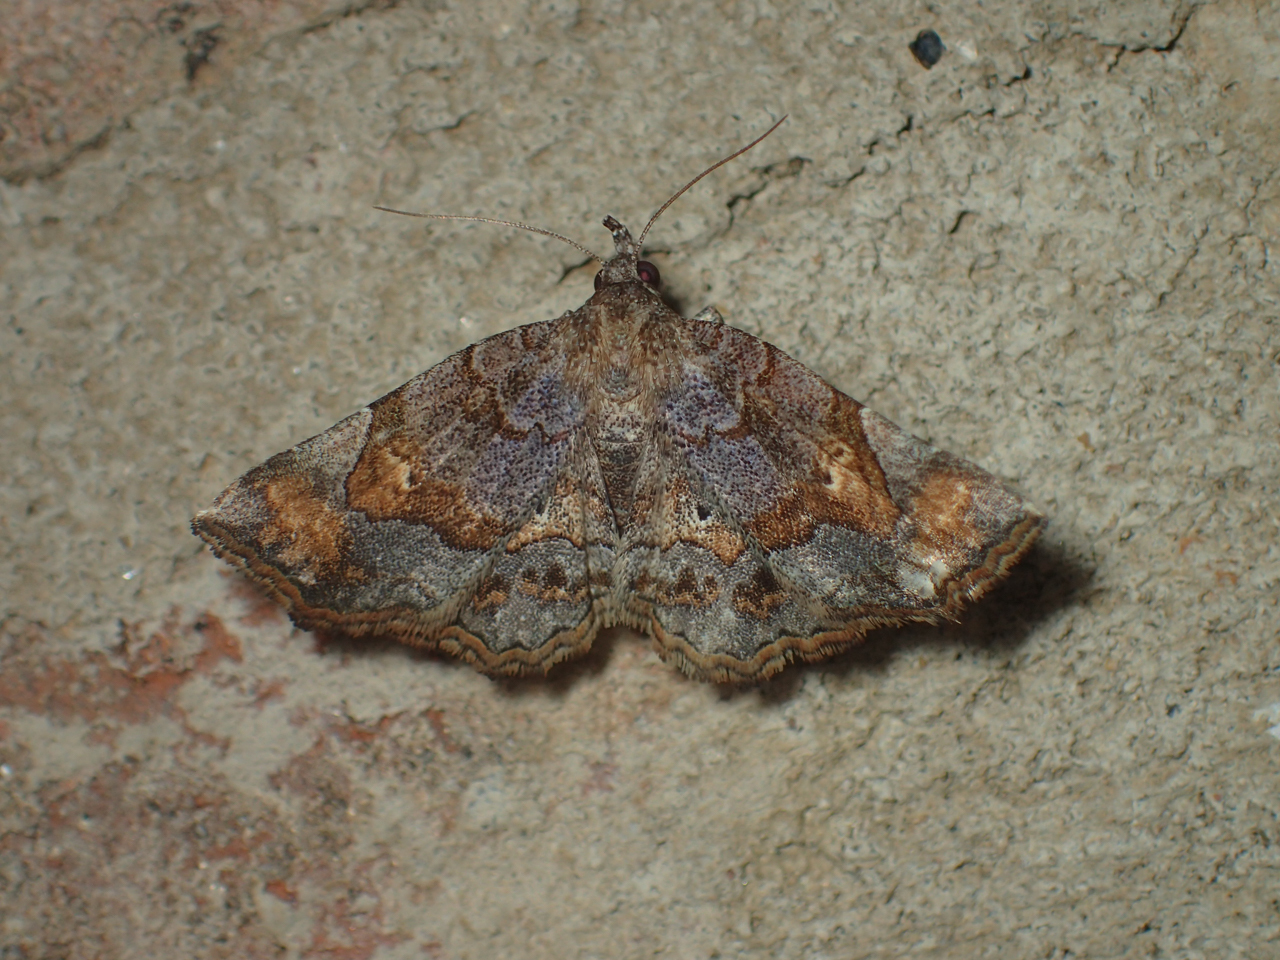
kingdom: Animalia
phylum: Arthropoda
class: Insecta
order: Lepidoptera
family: Erebidae
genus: Pangrapta
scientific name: Pangrapta decoralis
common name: Decorated owlet
